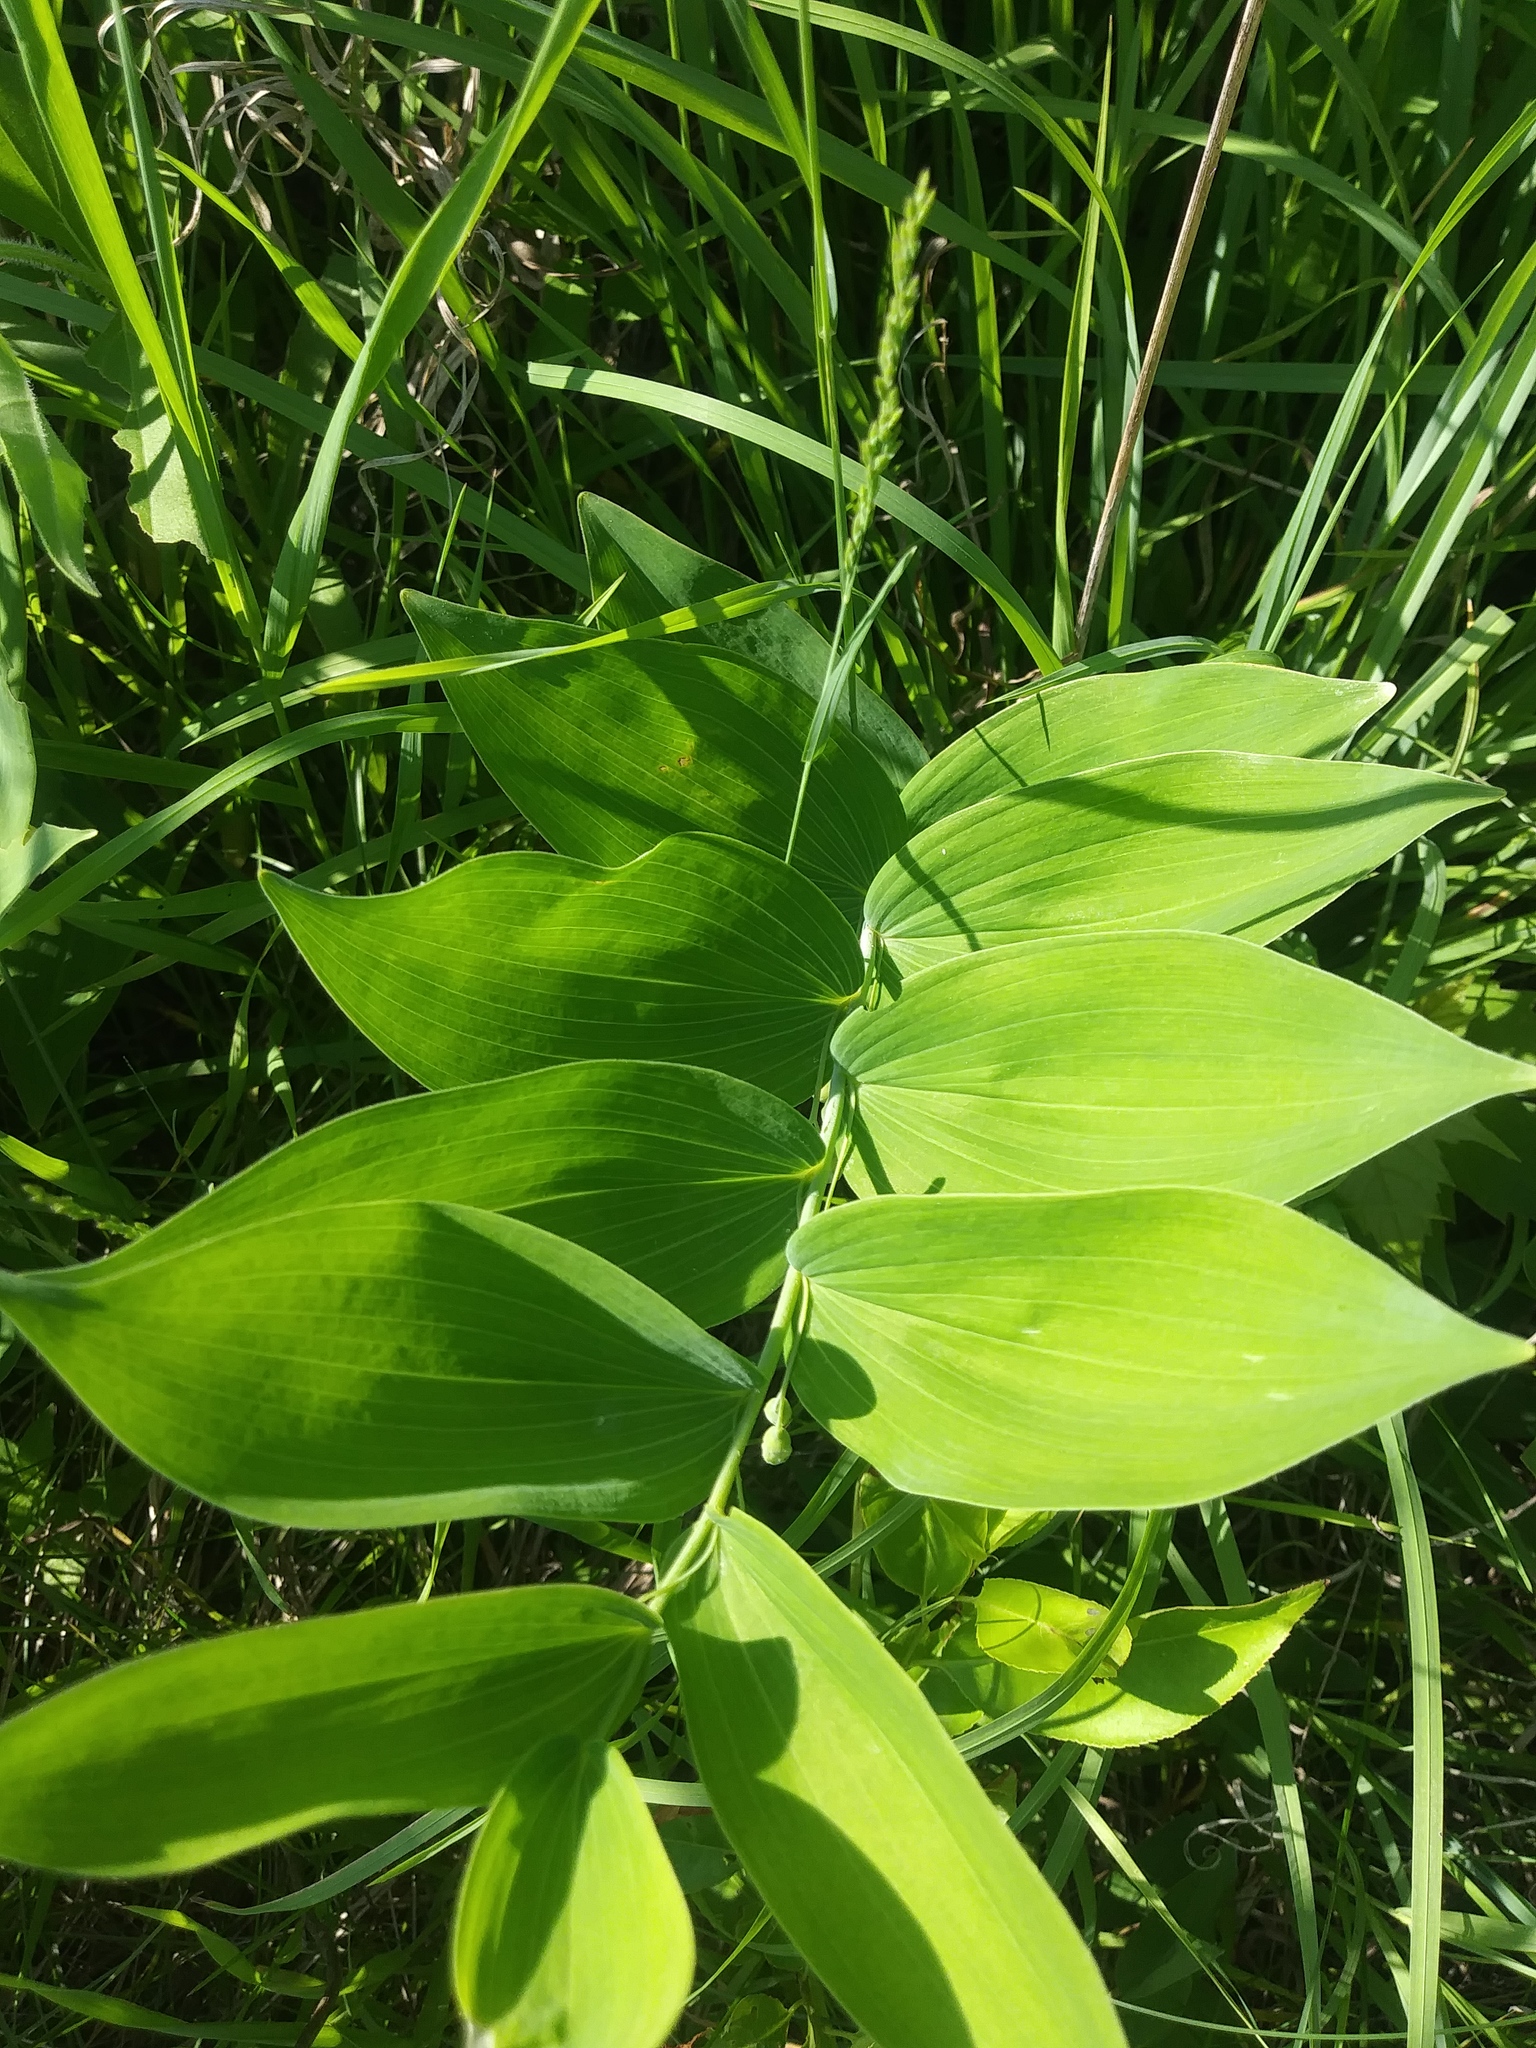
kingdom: Plantae
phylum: Tracheophyta
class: Liliopsida
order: Asparagales
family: Asparagaceae
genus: Polygonatum
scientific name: Polygonatum biflorum
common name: American solomon's-seal
